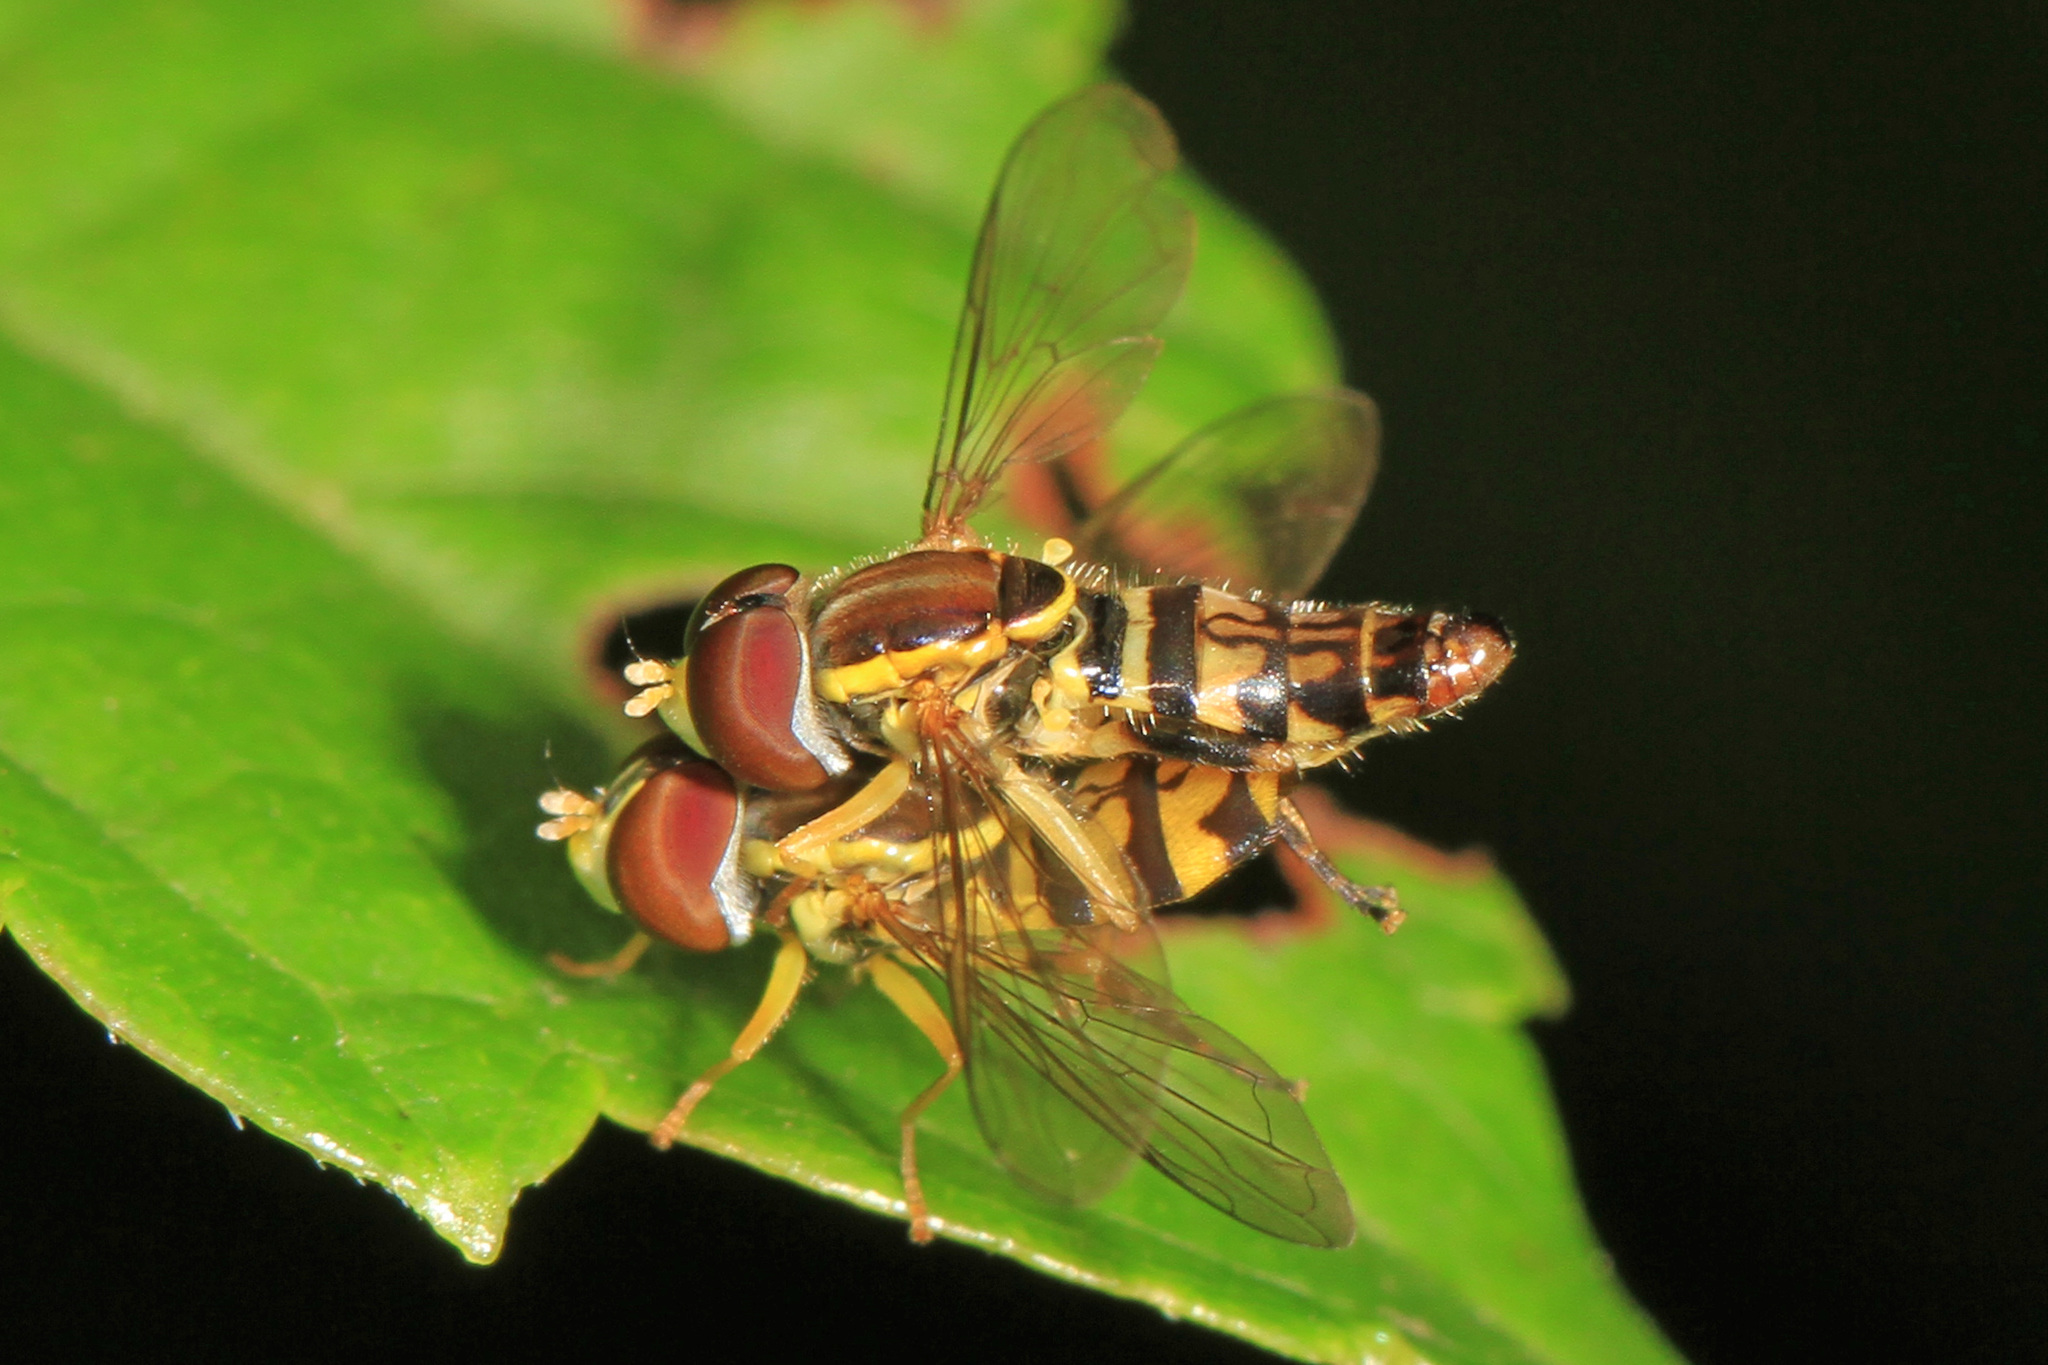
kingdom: Animalia
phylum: Arthropoda
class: Insecta
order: Diptera
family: Syrphidae
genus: Toxomerus
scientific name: Toxomerus geminatus
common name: Eastern calligrapher
